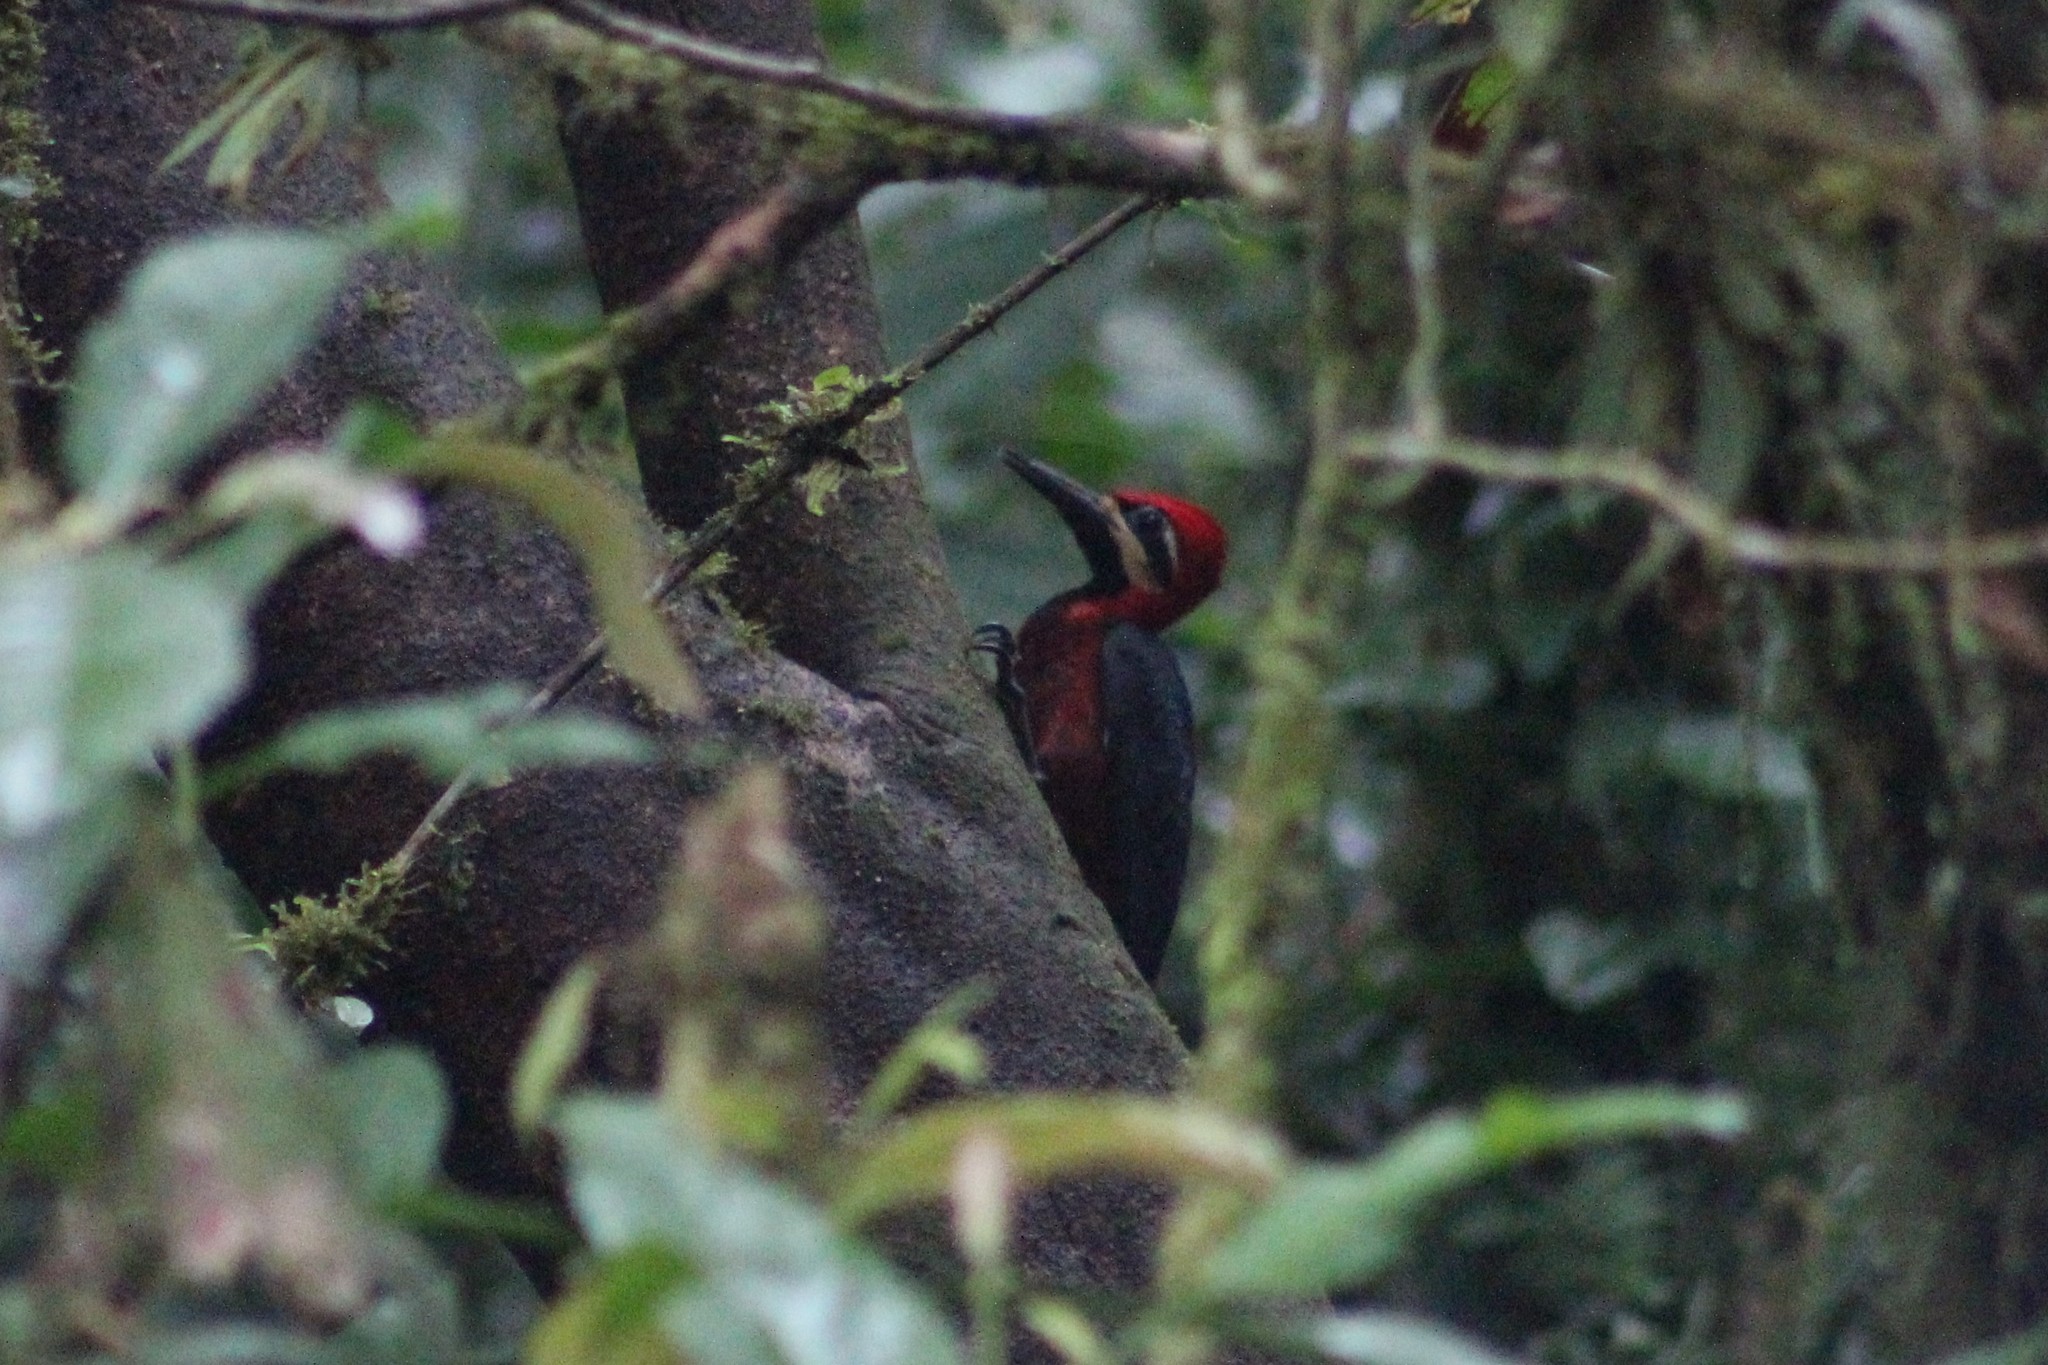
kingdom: Animalia
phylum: Chordata
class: Aves
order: Piciformes
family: Picidae
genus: Campephilus
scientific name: Campephilus haematogaster
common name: Crimson-bellied woodpecker
